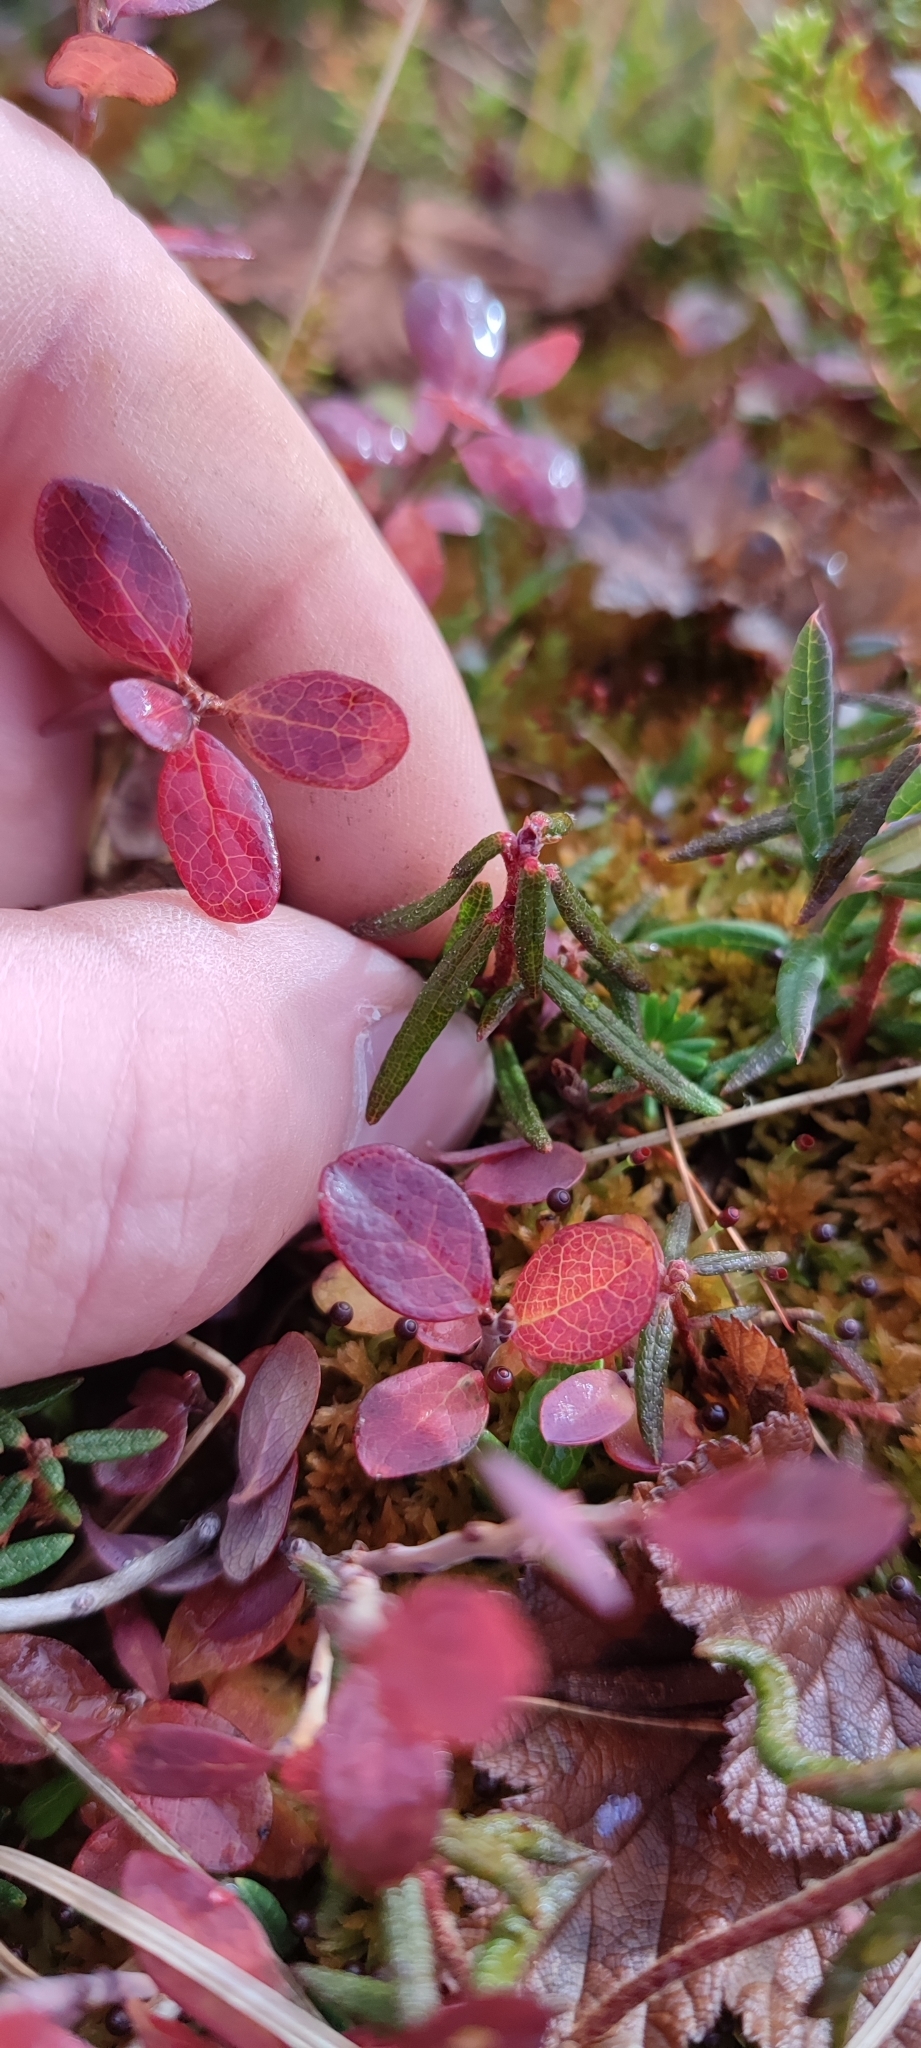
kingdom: Plantae
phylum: Tracheophyta
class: Magnoliopsida
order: Ericales
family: Ericaceae
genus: Andromeda
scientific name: Andromeda polifolia
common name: Bog-rosemary
